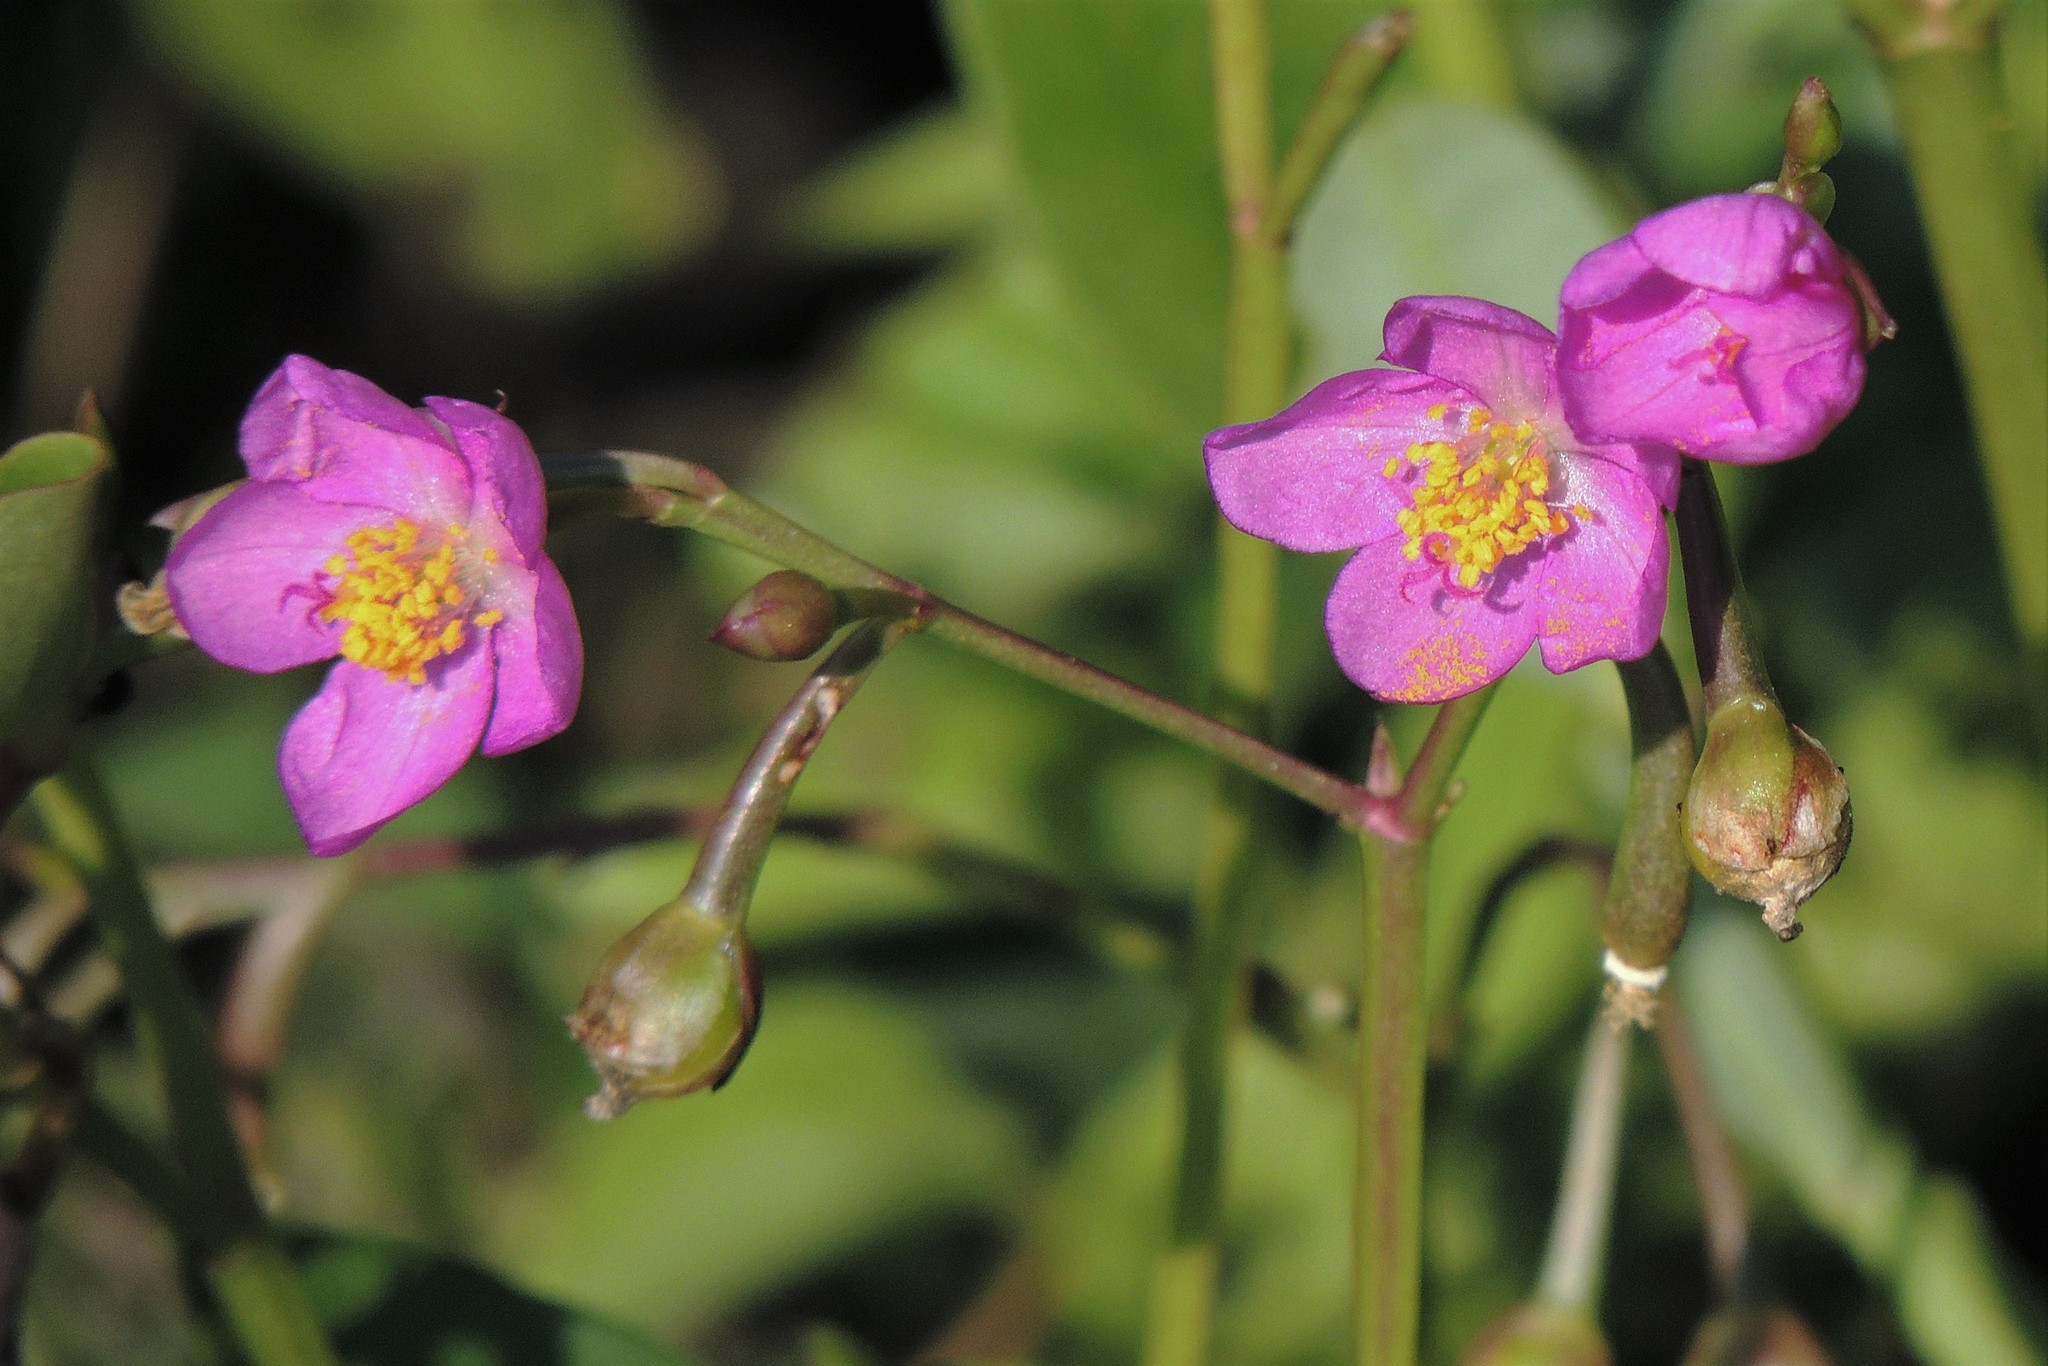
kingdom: Plantae
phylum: Tracheophyta
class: Magnoliopsida
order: Caryophyllales
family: Talinaceae
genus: Talinum
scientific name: Talinum fruticosum
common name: Verdolaga-francesa
